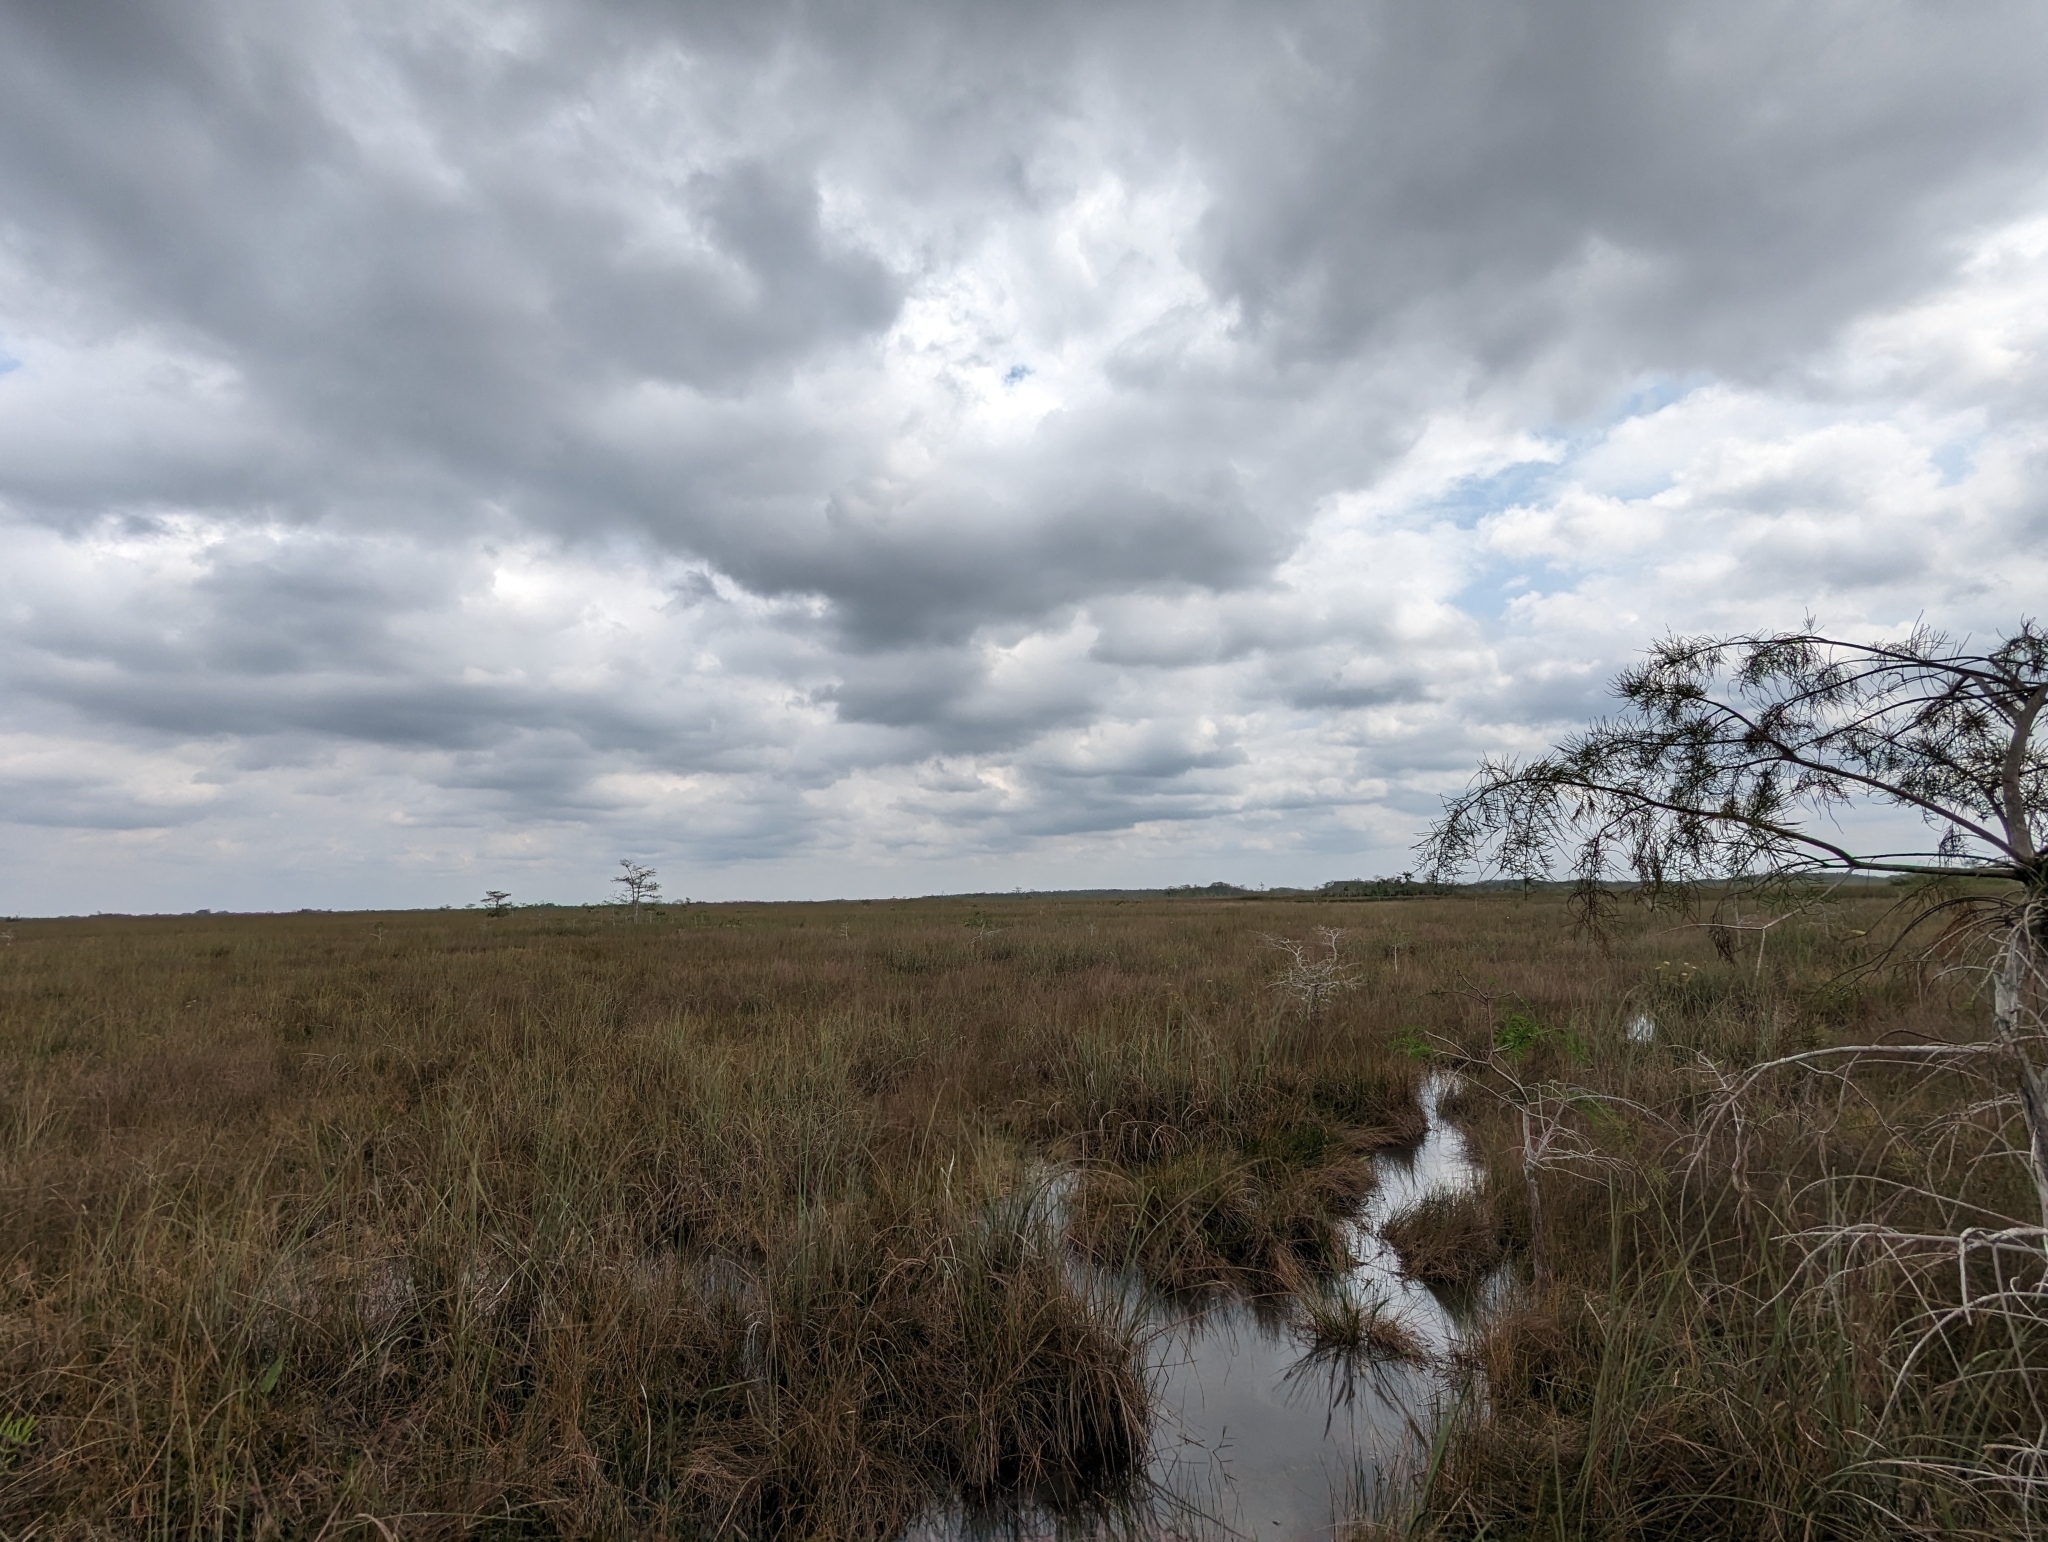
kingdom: Plantae
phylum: Tracheophyta
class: Liliopsida
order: Poales
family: Cyperaceae
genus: Cladium
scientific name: Cladium mariscus
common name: Great fen-sedge
